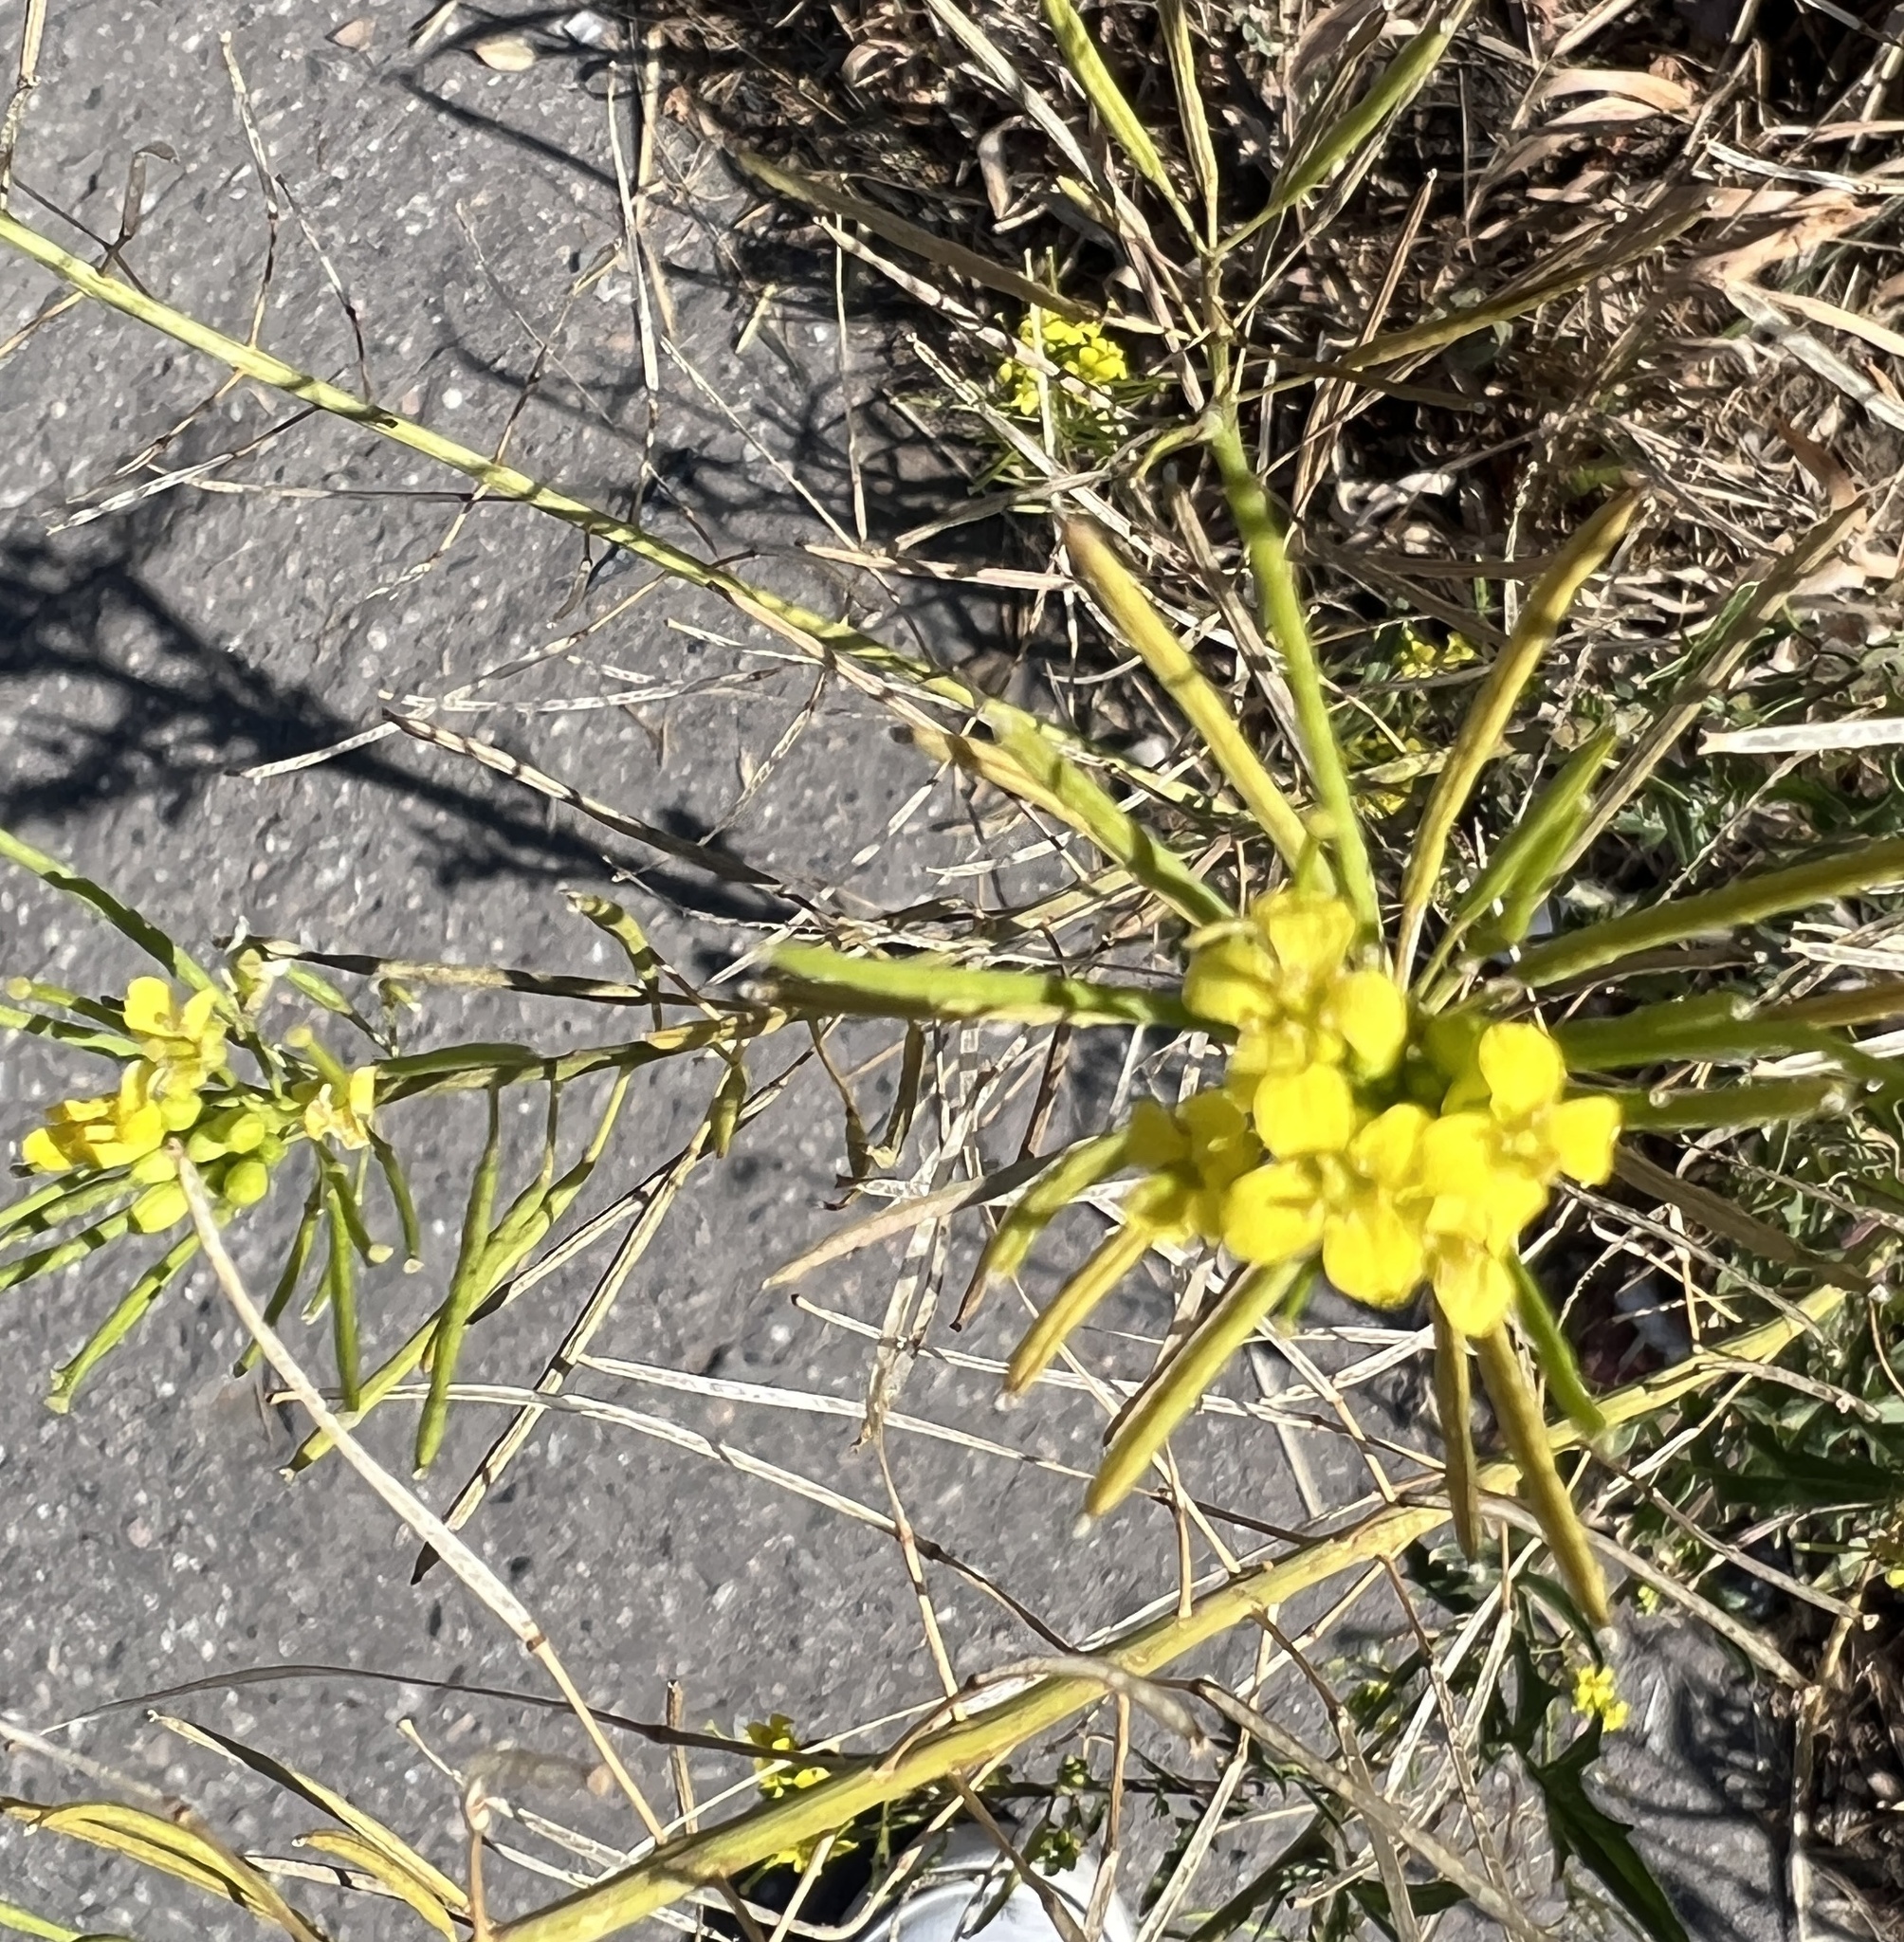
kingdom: Plantae
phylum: Tracheophyta
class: Magnoliopsida
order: Brassicales
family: Brassicaceae
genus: Sisymbrium
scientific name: Sisymbrium loeselii
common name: False london-rocket
